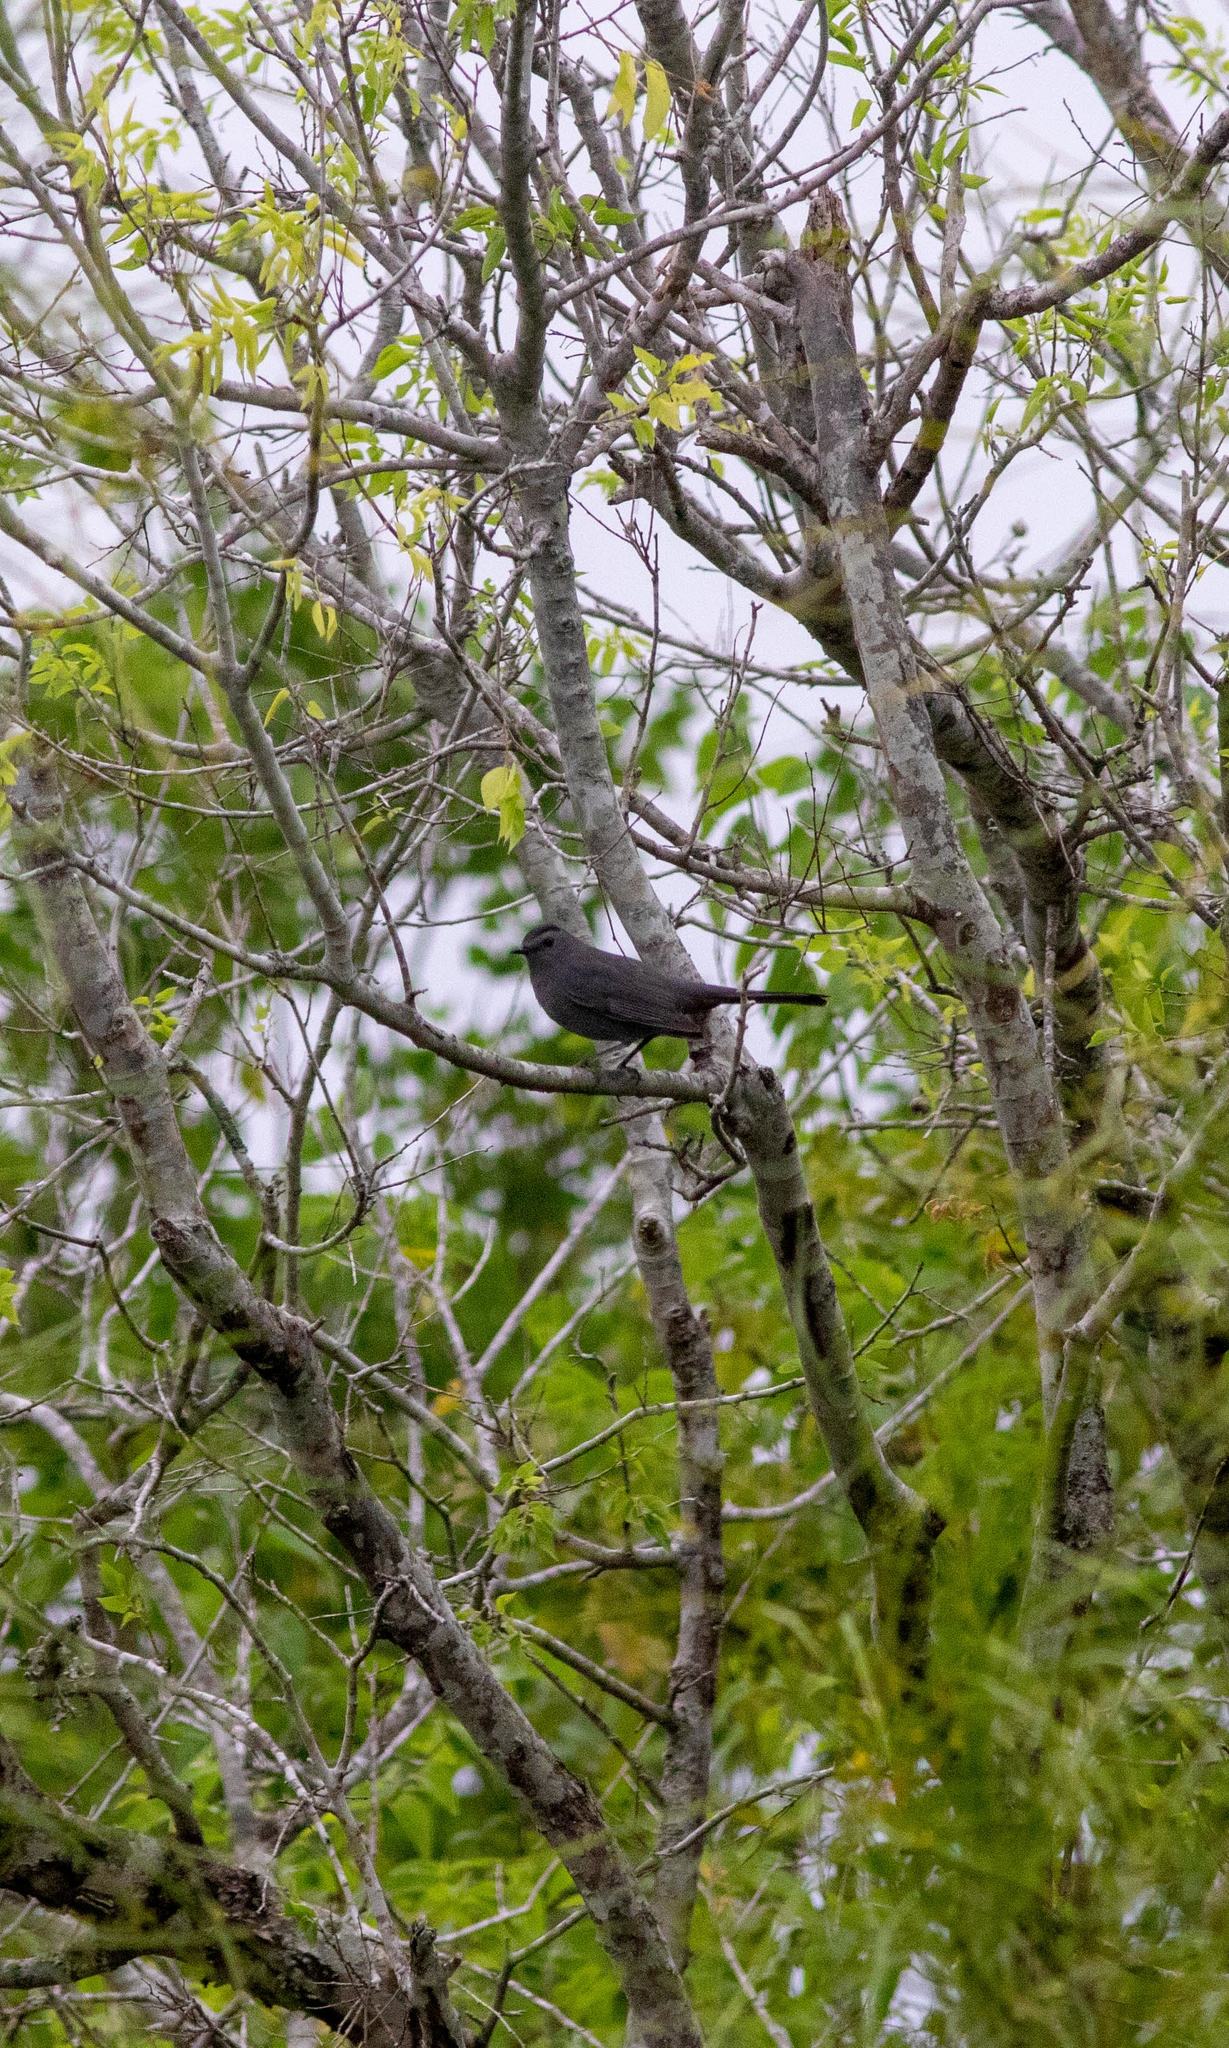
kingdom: Animalia
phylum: Chordata
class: Aves
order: Passeriformes
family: Mimidae
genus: Dumetella
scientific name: Dumetella carolinensis
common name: Gray catbird
